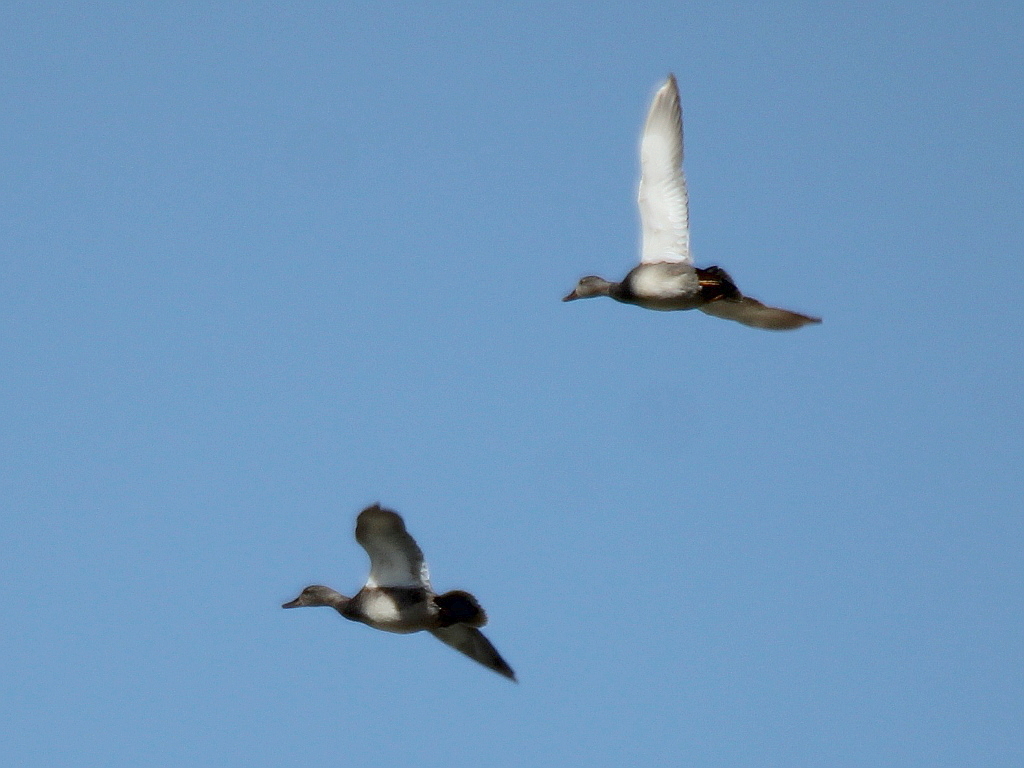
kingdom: Animalia
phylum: Chordata
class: Aves
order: Anseriformes
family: Anatidae
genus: Mareca
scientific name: Mareca strepera
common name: Gadwall
